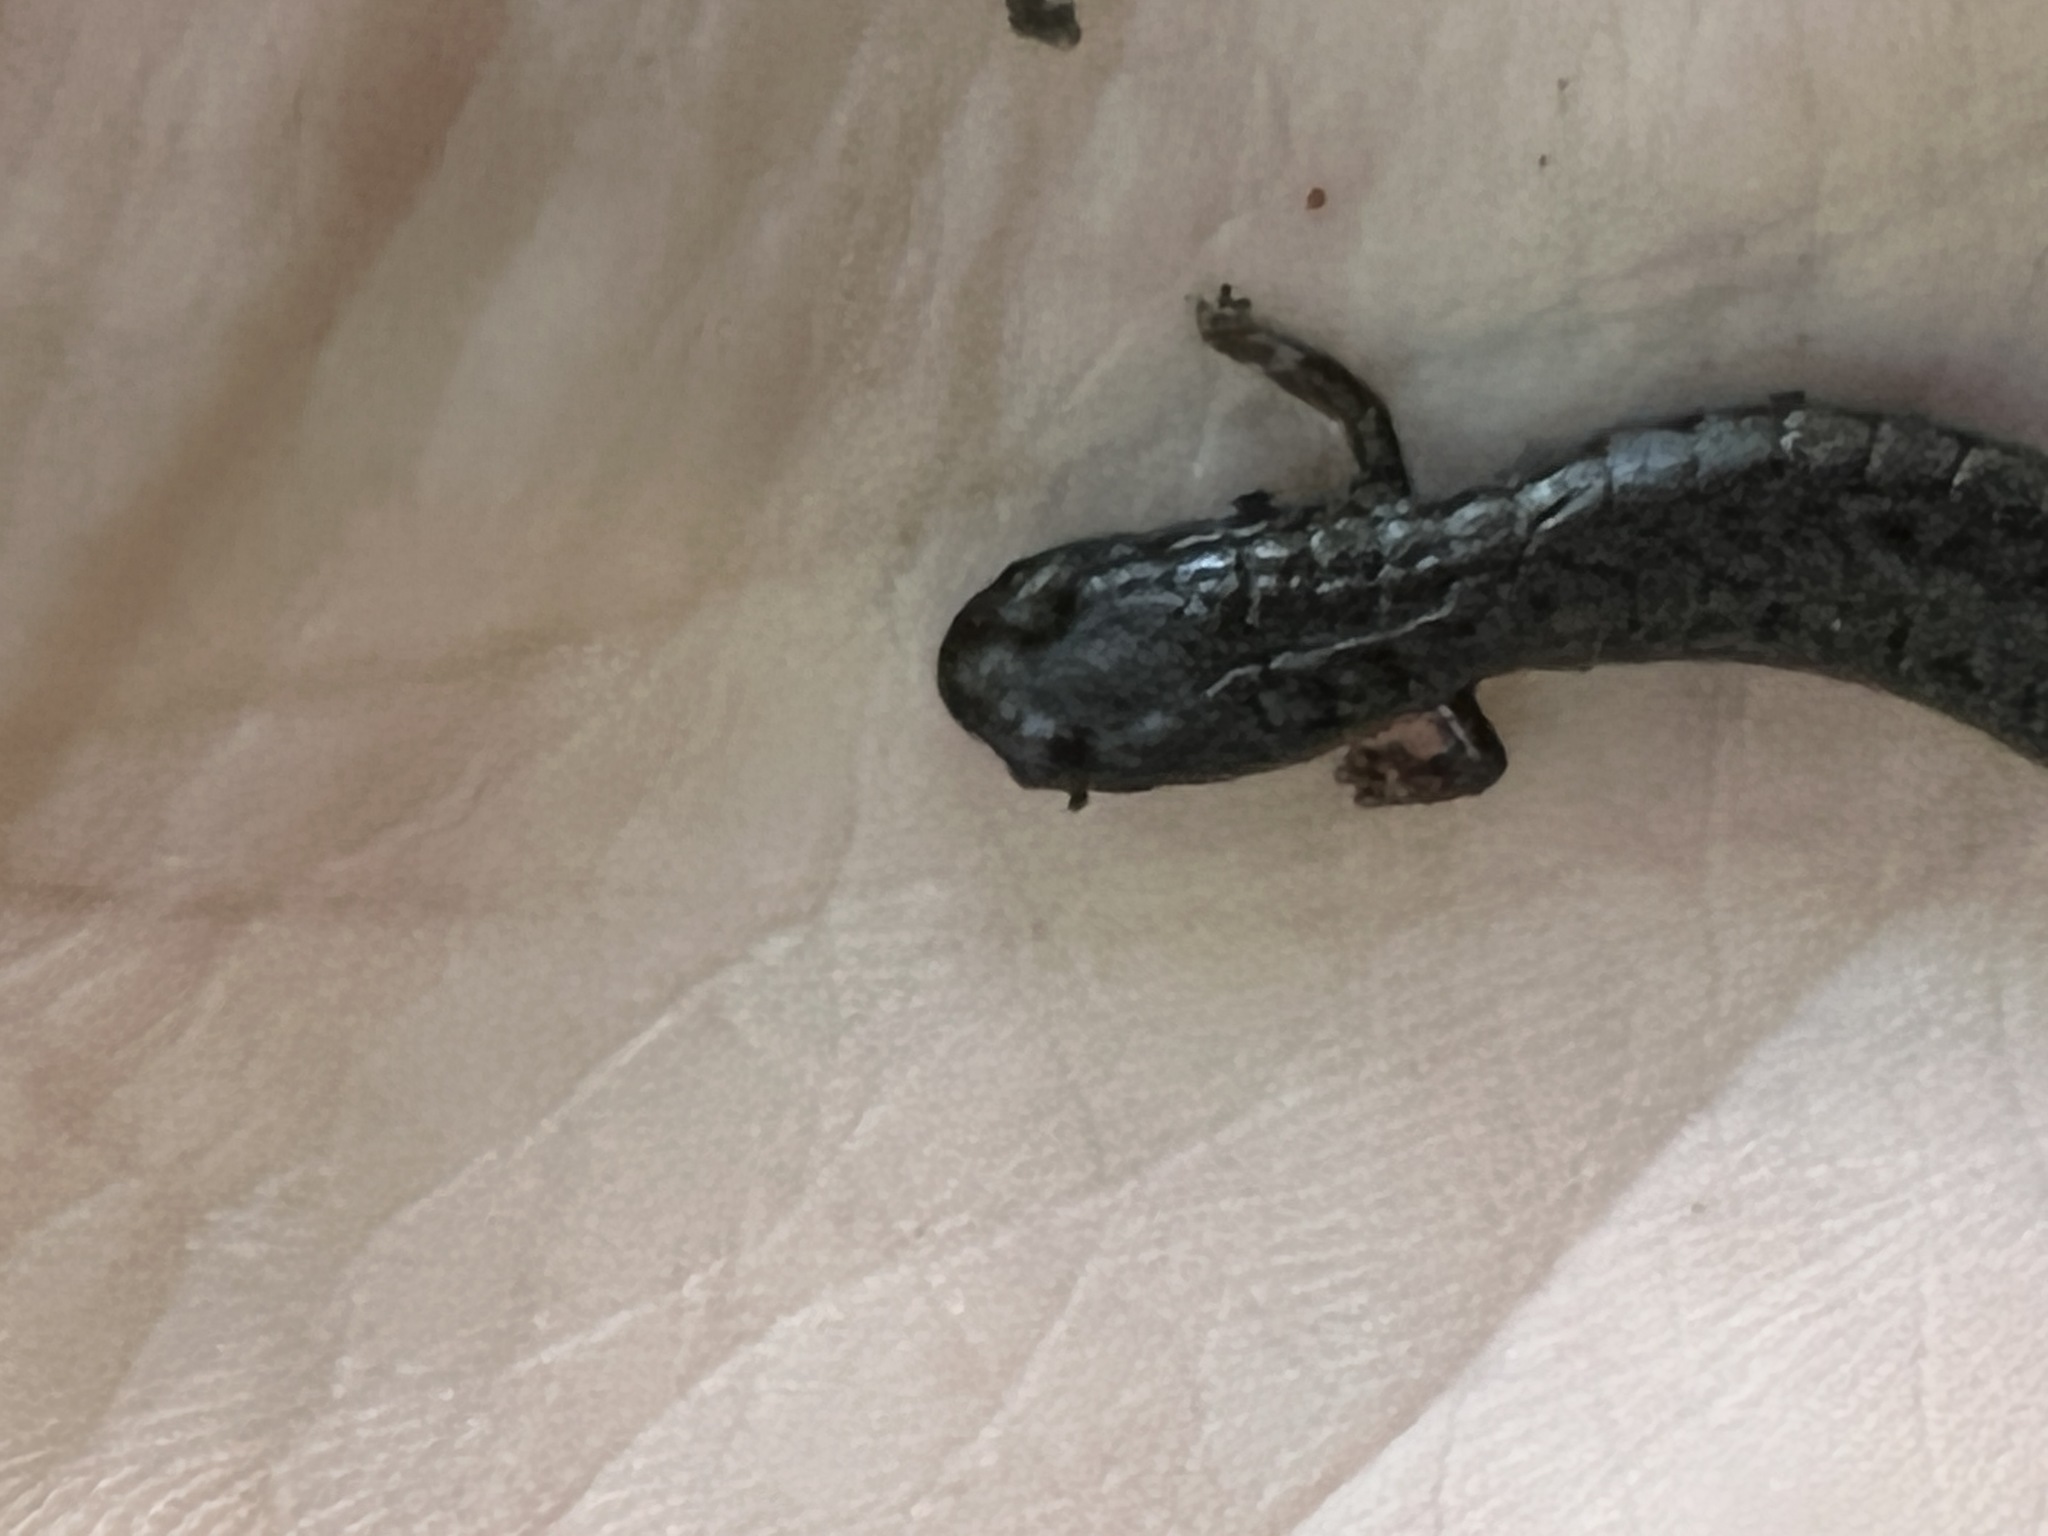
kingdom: Animalia
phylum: Chordata
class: Amphibia
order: Caudata
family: Plethodontidae
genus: Batrachoseps
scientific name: Batrachoseps attenuatus
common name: California slender salamander
